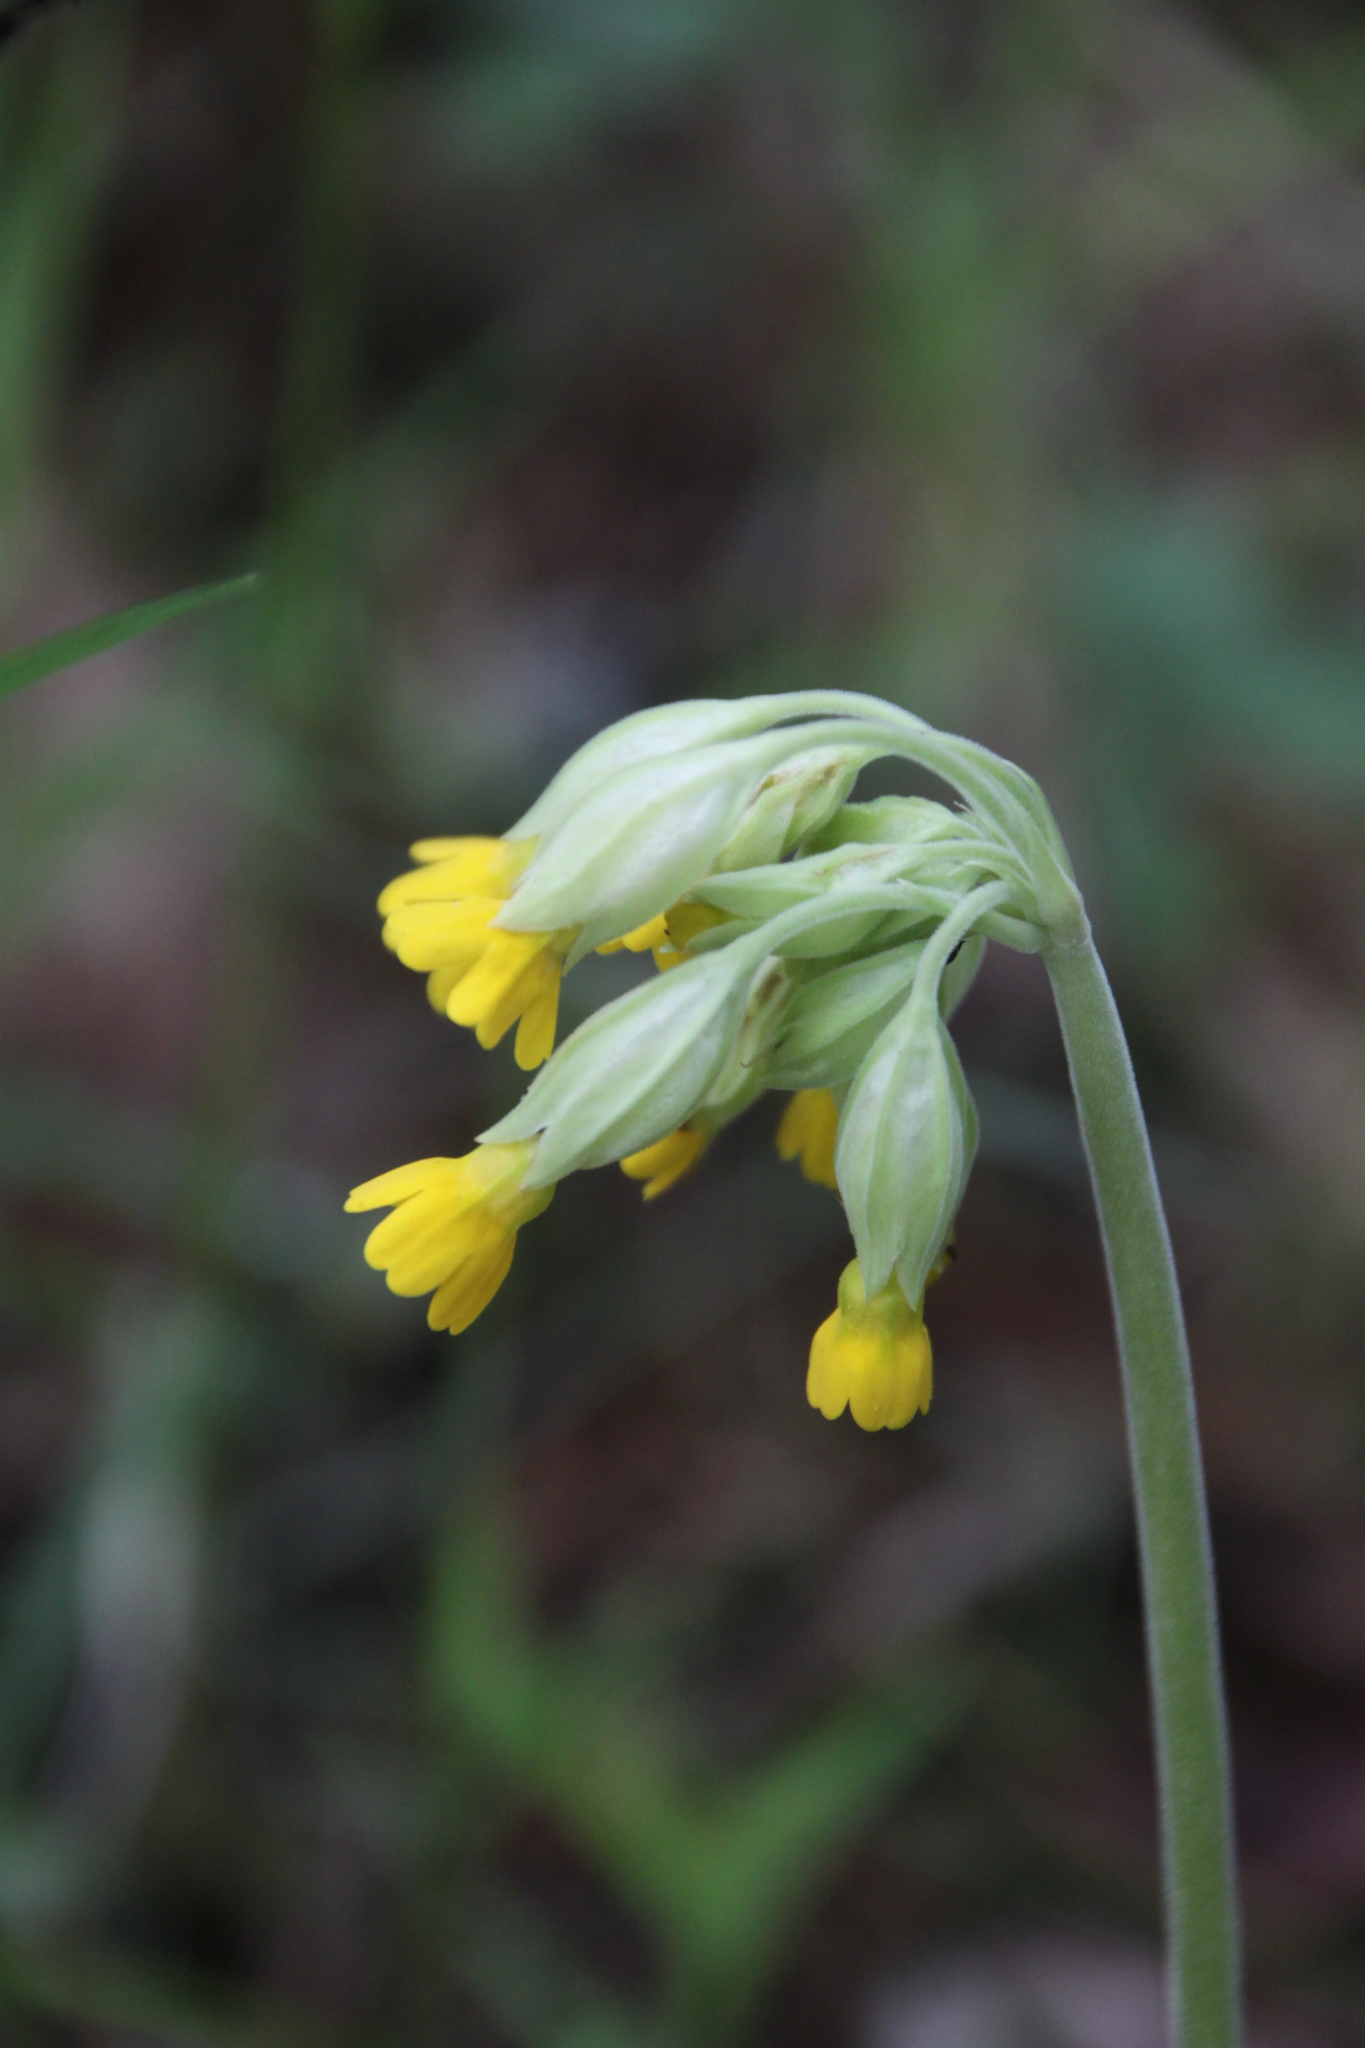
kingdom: Plantae
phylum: Tracheophyta
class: Magnoliopsida
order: Ericales
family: Primulaceae
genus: Primula
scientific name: Primula veris
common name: Cowslip
